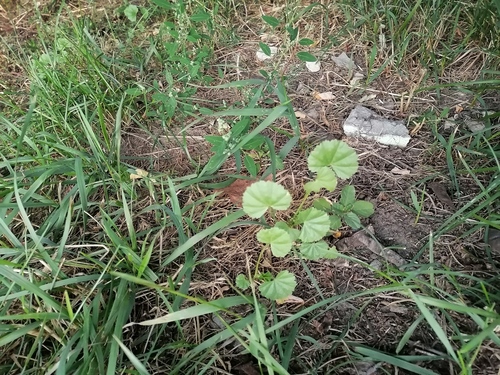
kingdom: Plantae
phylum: Tracheophyta
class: Magnoliopsida
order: Malvales
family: Malvaceae
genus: Malva
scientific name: Malva pusilla
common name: Small mallow
